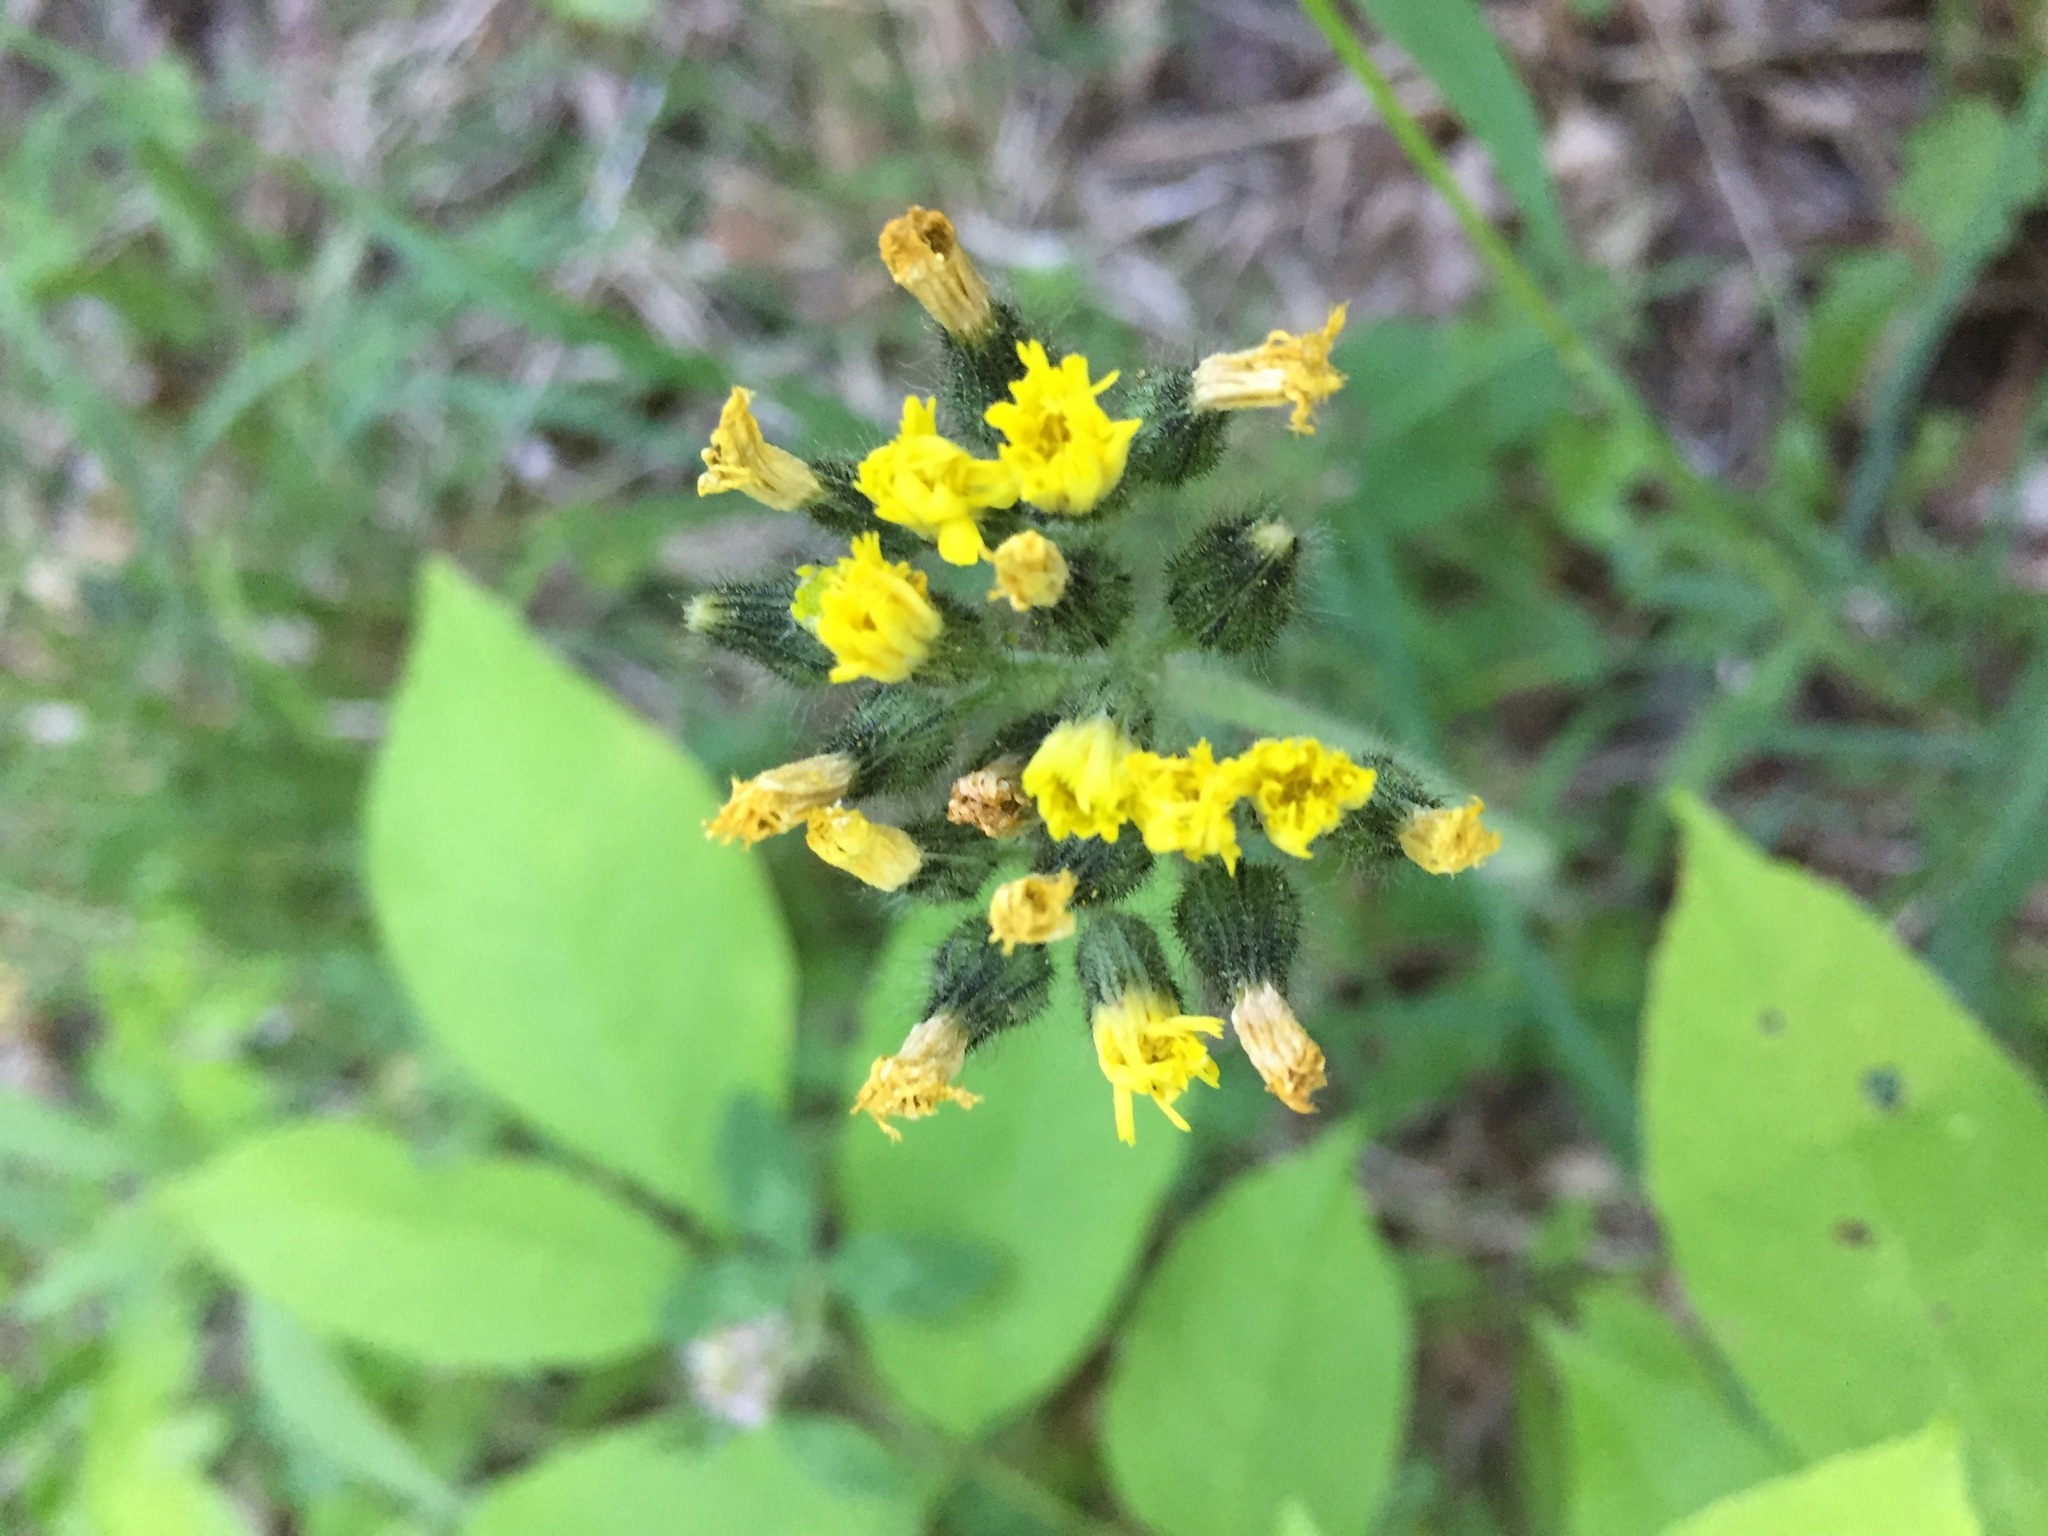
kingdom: Plantae
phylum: Tracheophyta
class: Magnoliopsida
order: Asterales
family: Asteraceae
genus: Pilosella
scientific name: Pilosella caespitosa
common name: Yellow fox-and-cubs
